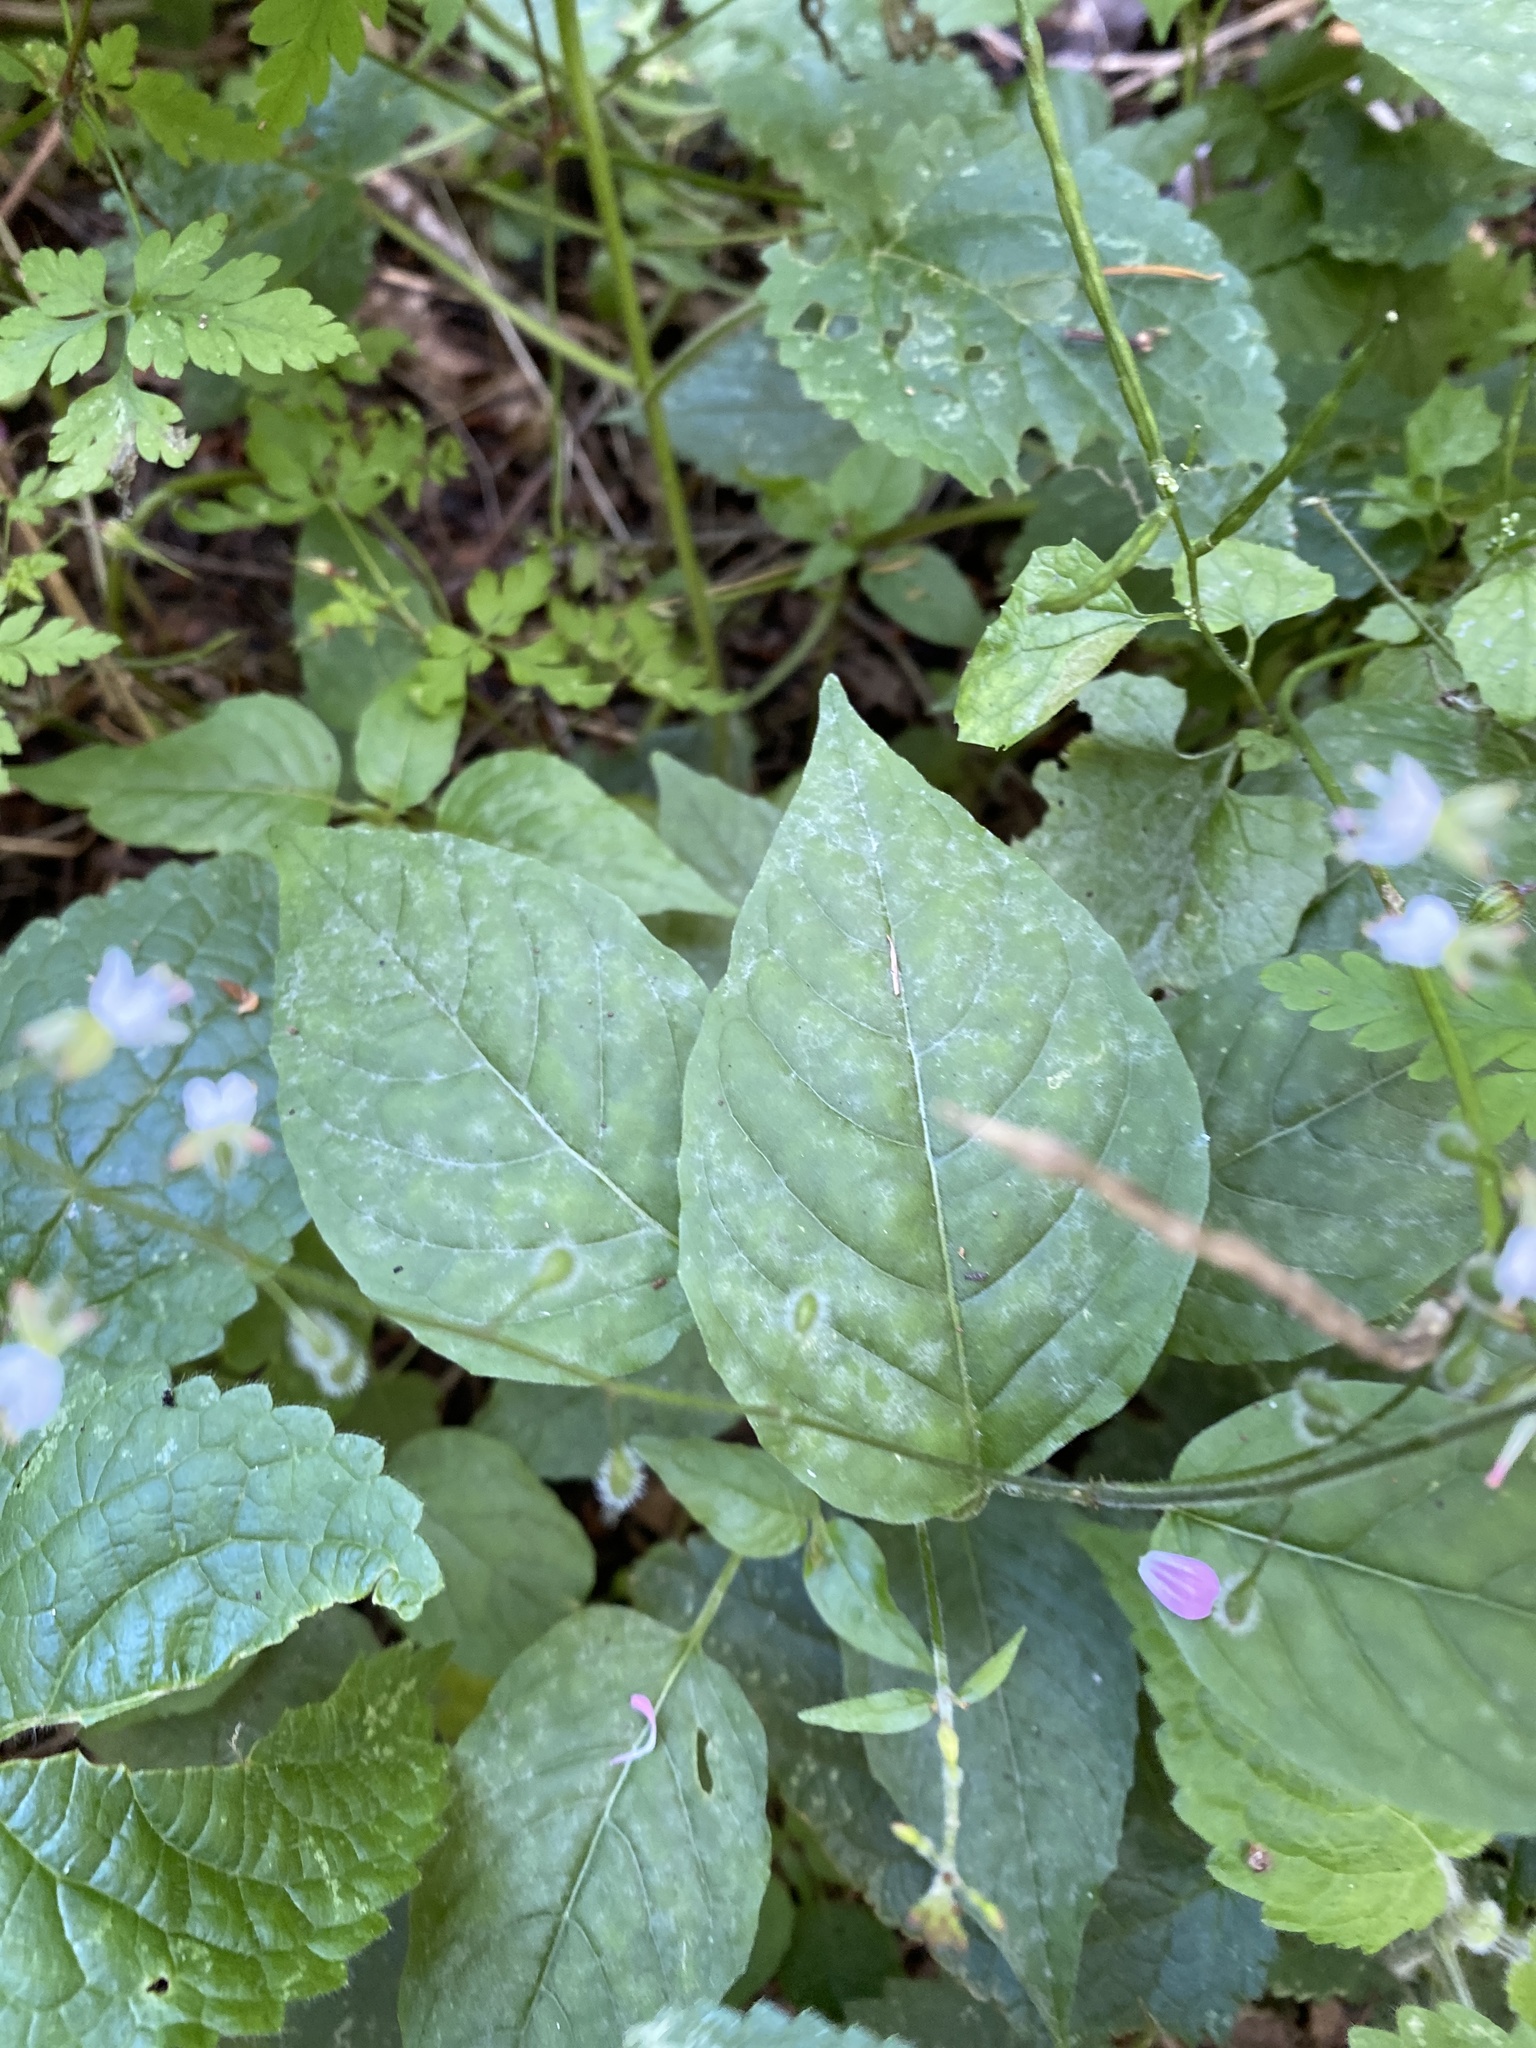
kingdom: Plantae
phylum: Tracheophyta
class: Magnoliopsida
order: Myrtales
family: Onagraceae
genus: Circaea
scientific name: Circaea lutetiana
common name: Enchanter's-nightshade
